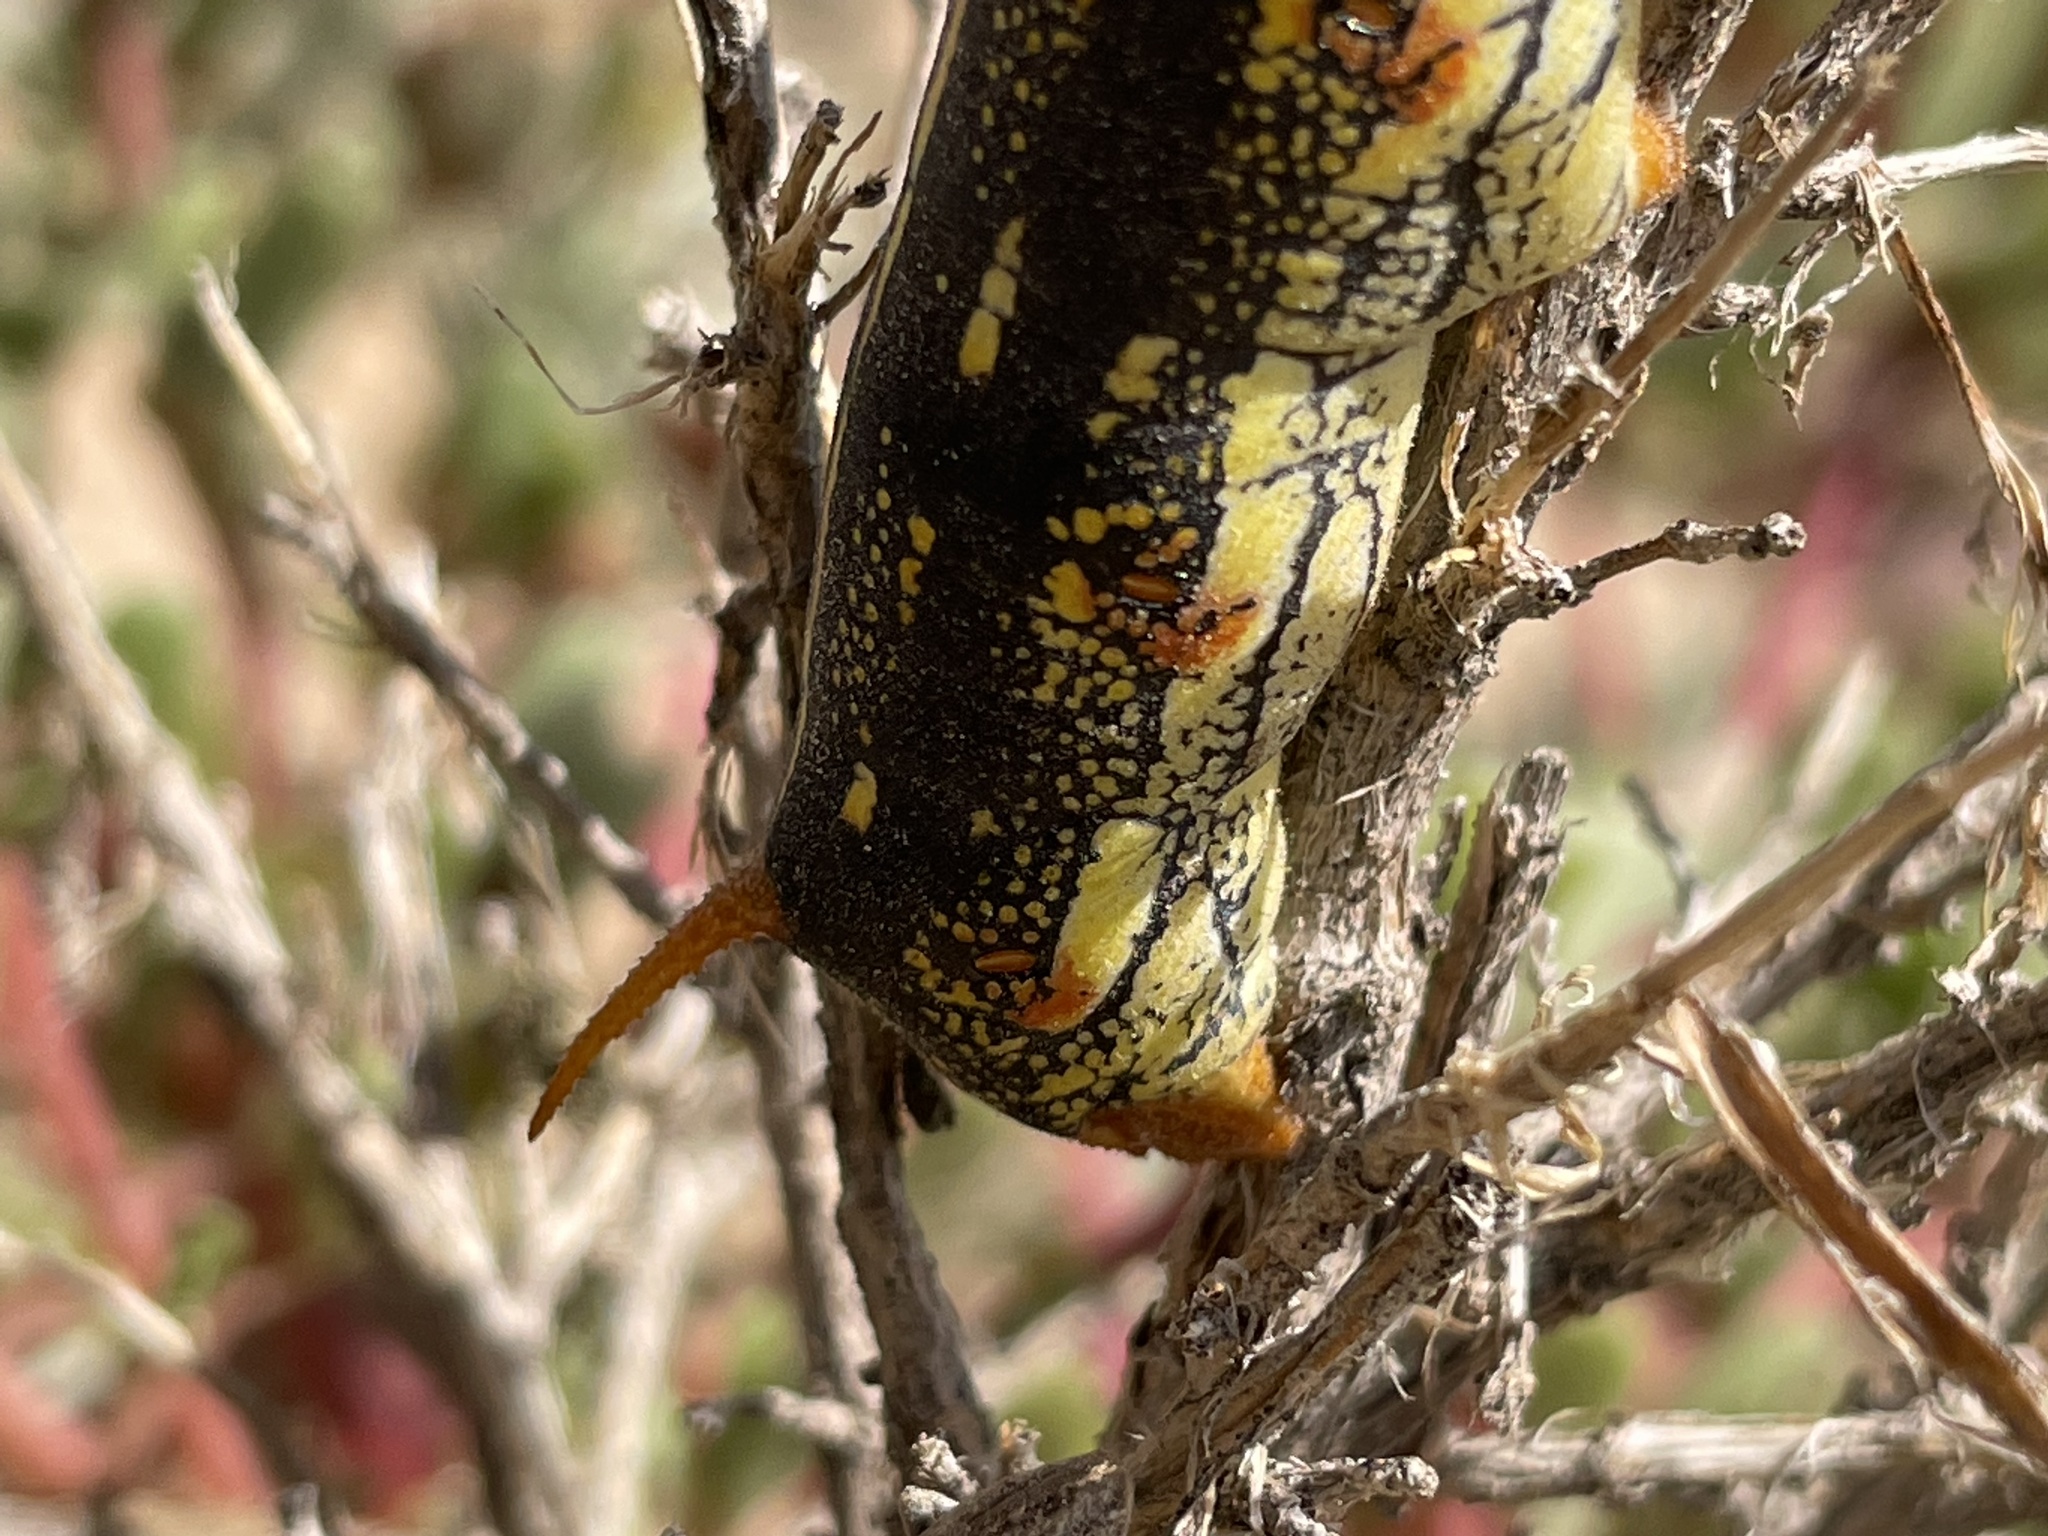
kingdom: Animalia
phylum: Arthropoda
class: Insecta
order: Lepidoptera
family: Sphingidae
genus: Hyles
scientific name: Hyles lineata
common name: White-lined sphinx
